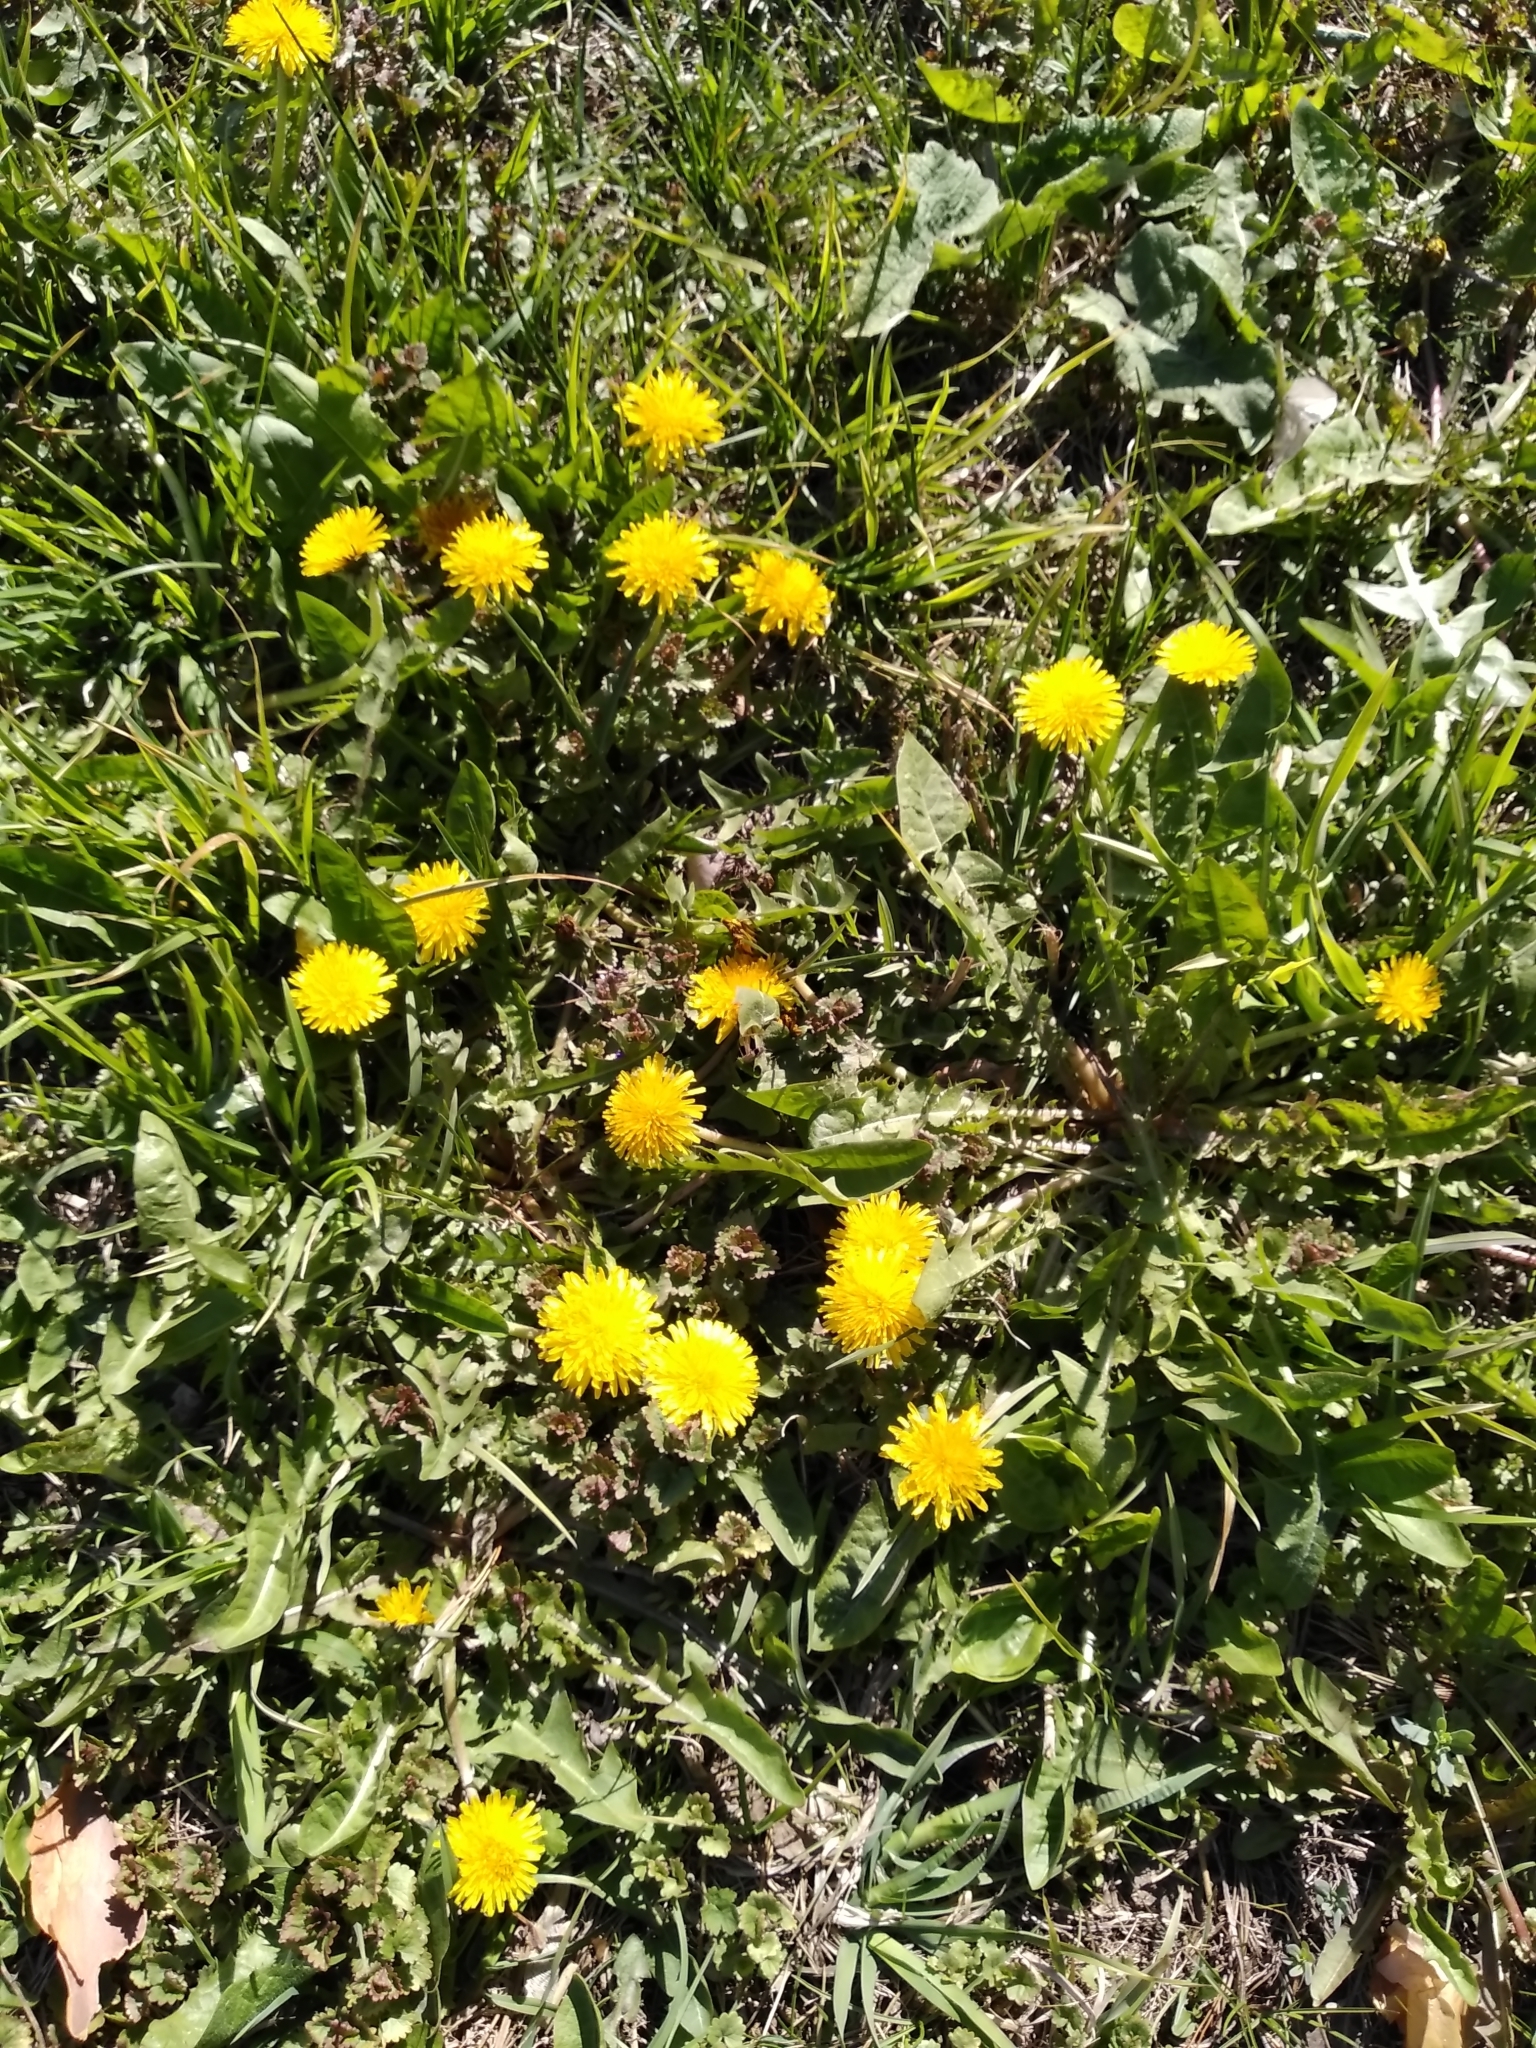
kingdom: Plantae
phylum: Tracheophyta
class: Magnoliopsida
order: Asterales
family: Asteraceae
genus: Taraxacum
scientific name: Taraxacum officinale
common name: Common dandelion
